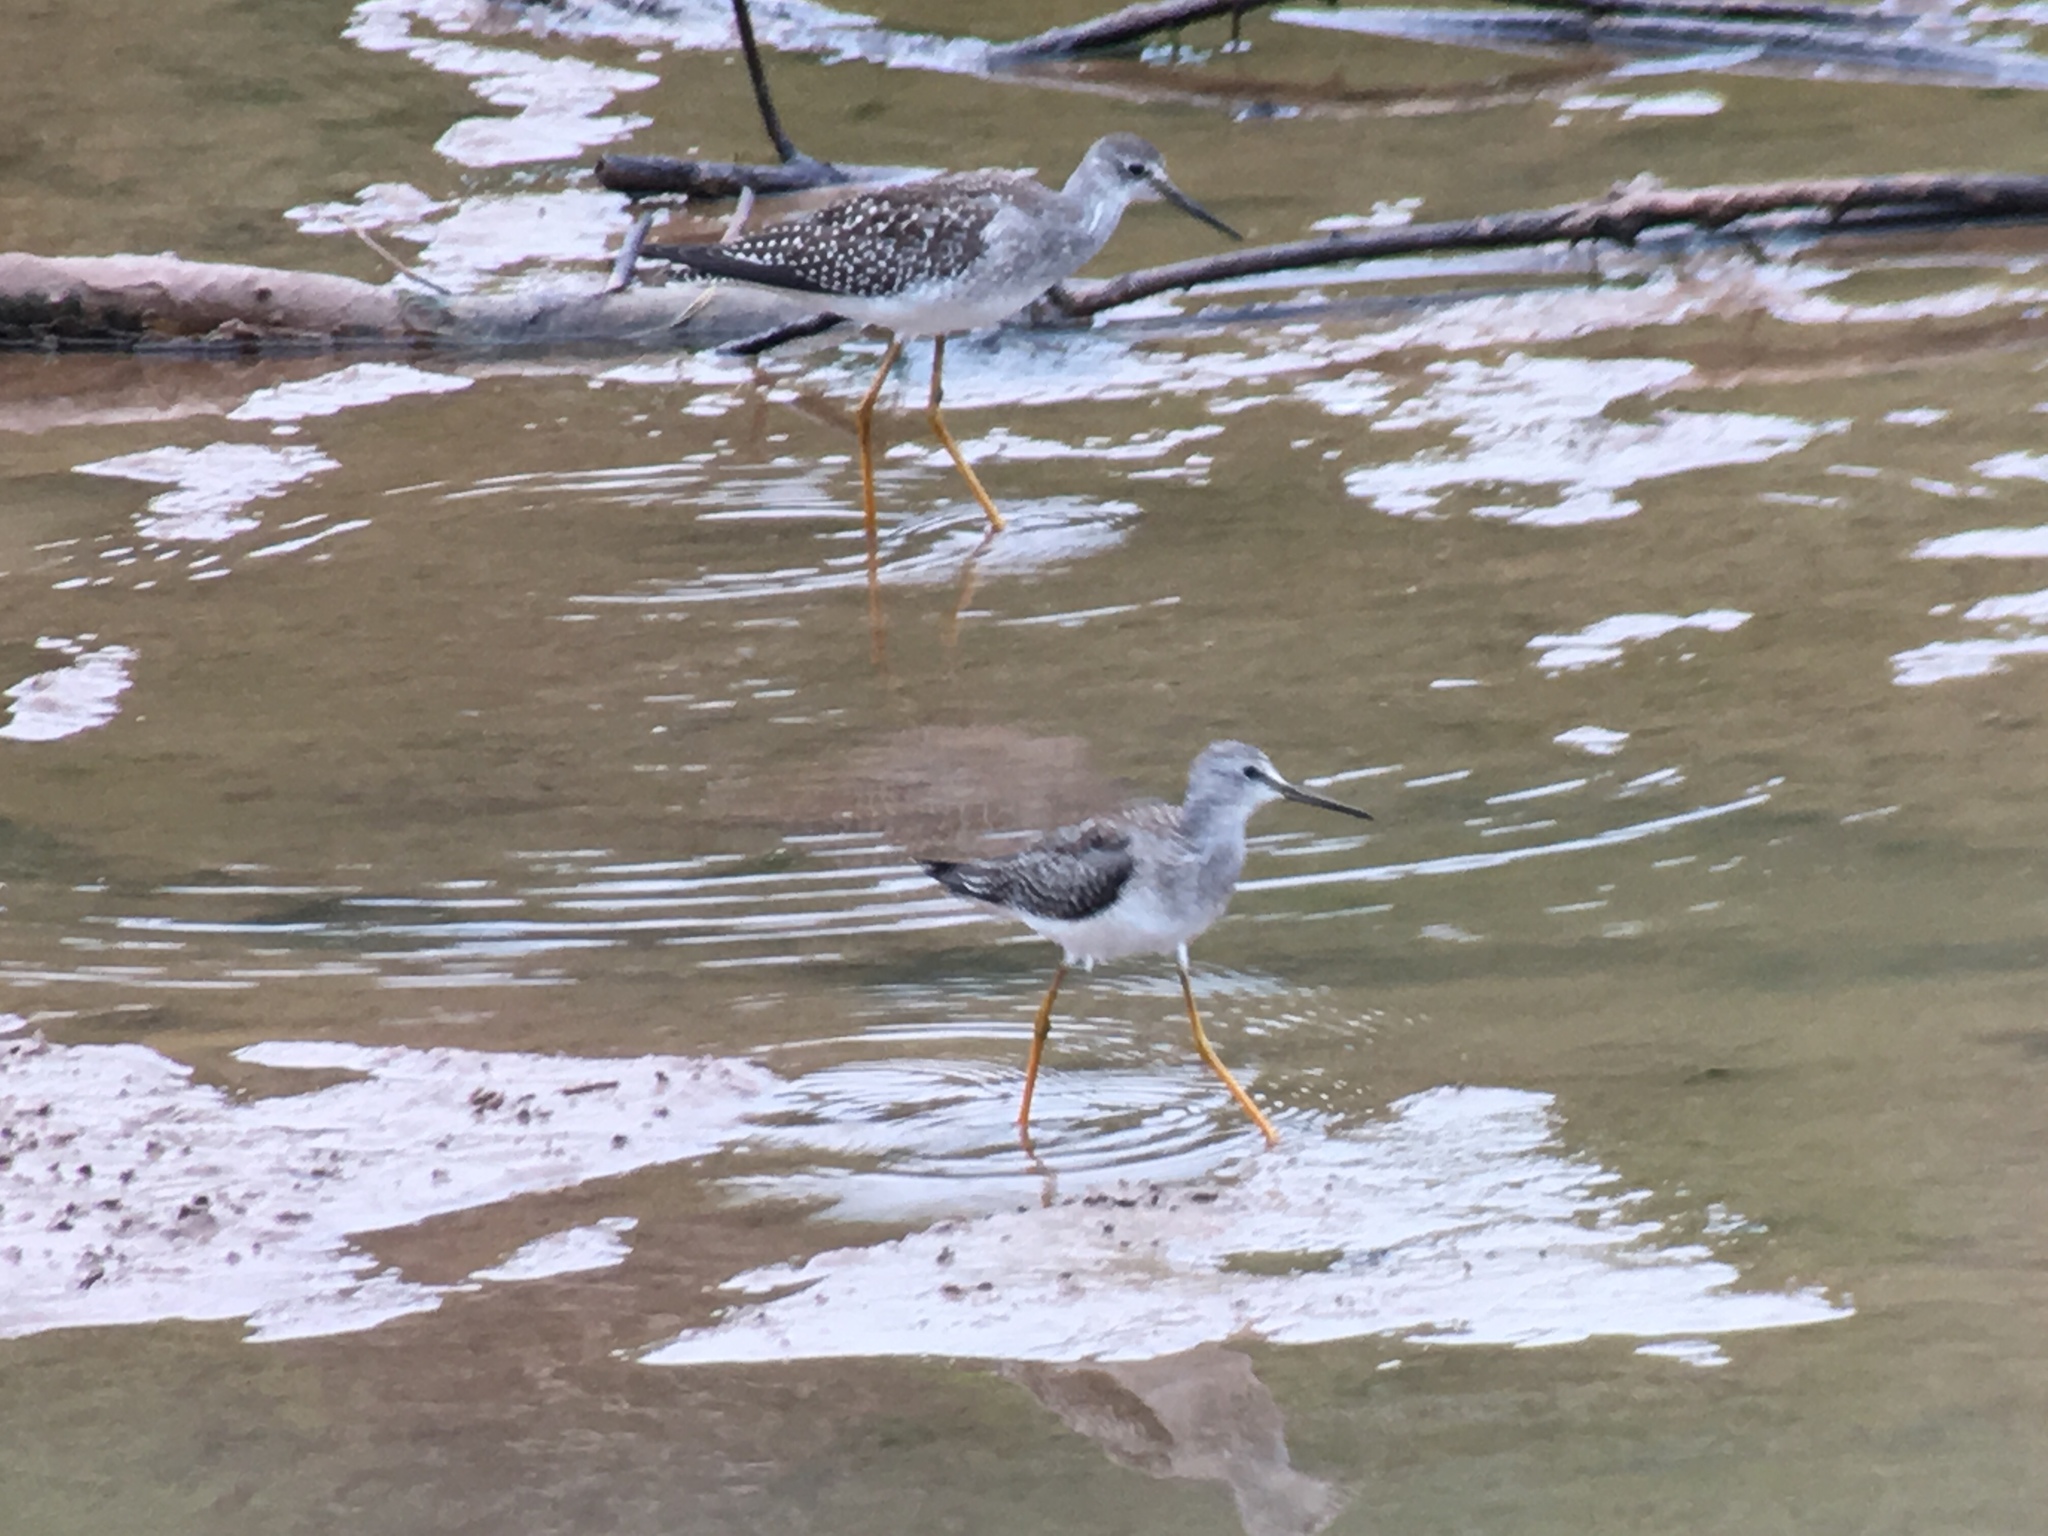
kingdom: Animalia
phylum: Chordata
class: Aves
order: Charadriiformes
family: Scolopacidae
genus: Tringa
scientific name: Tringa melanoleuca
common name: Greater yellowlegs
